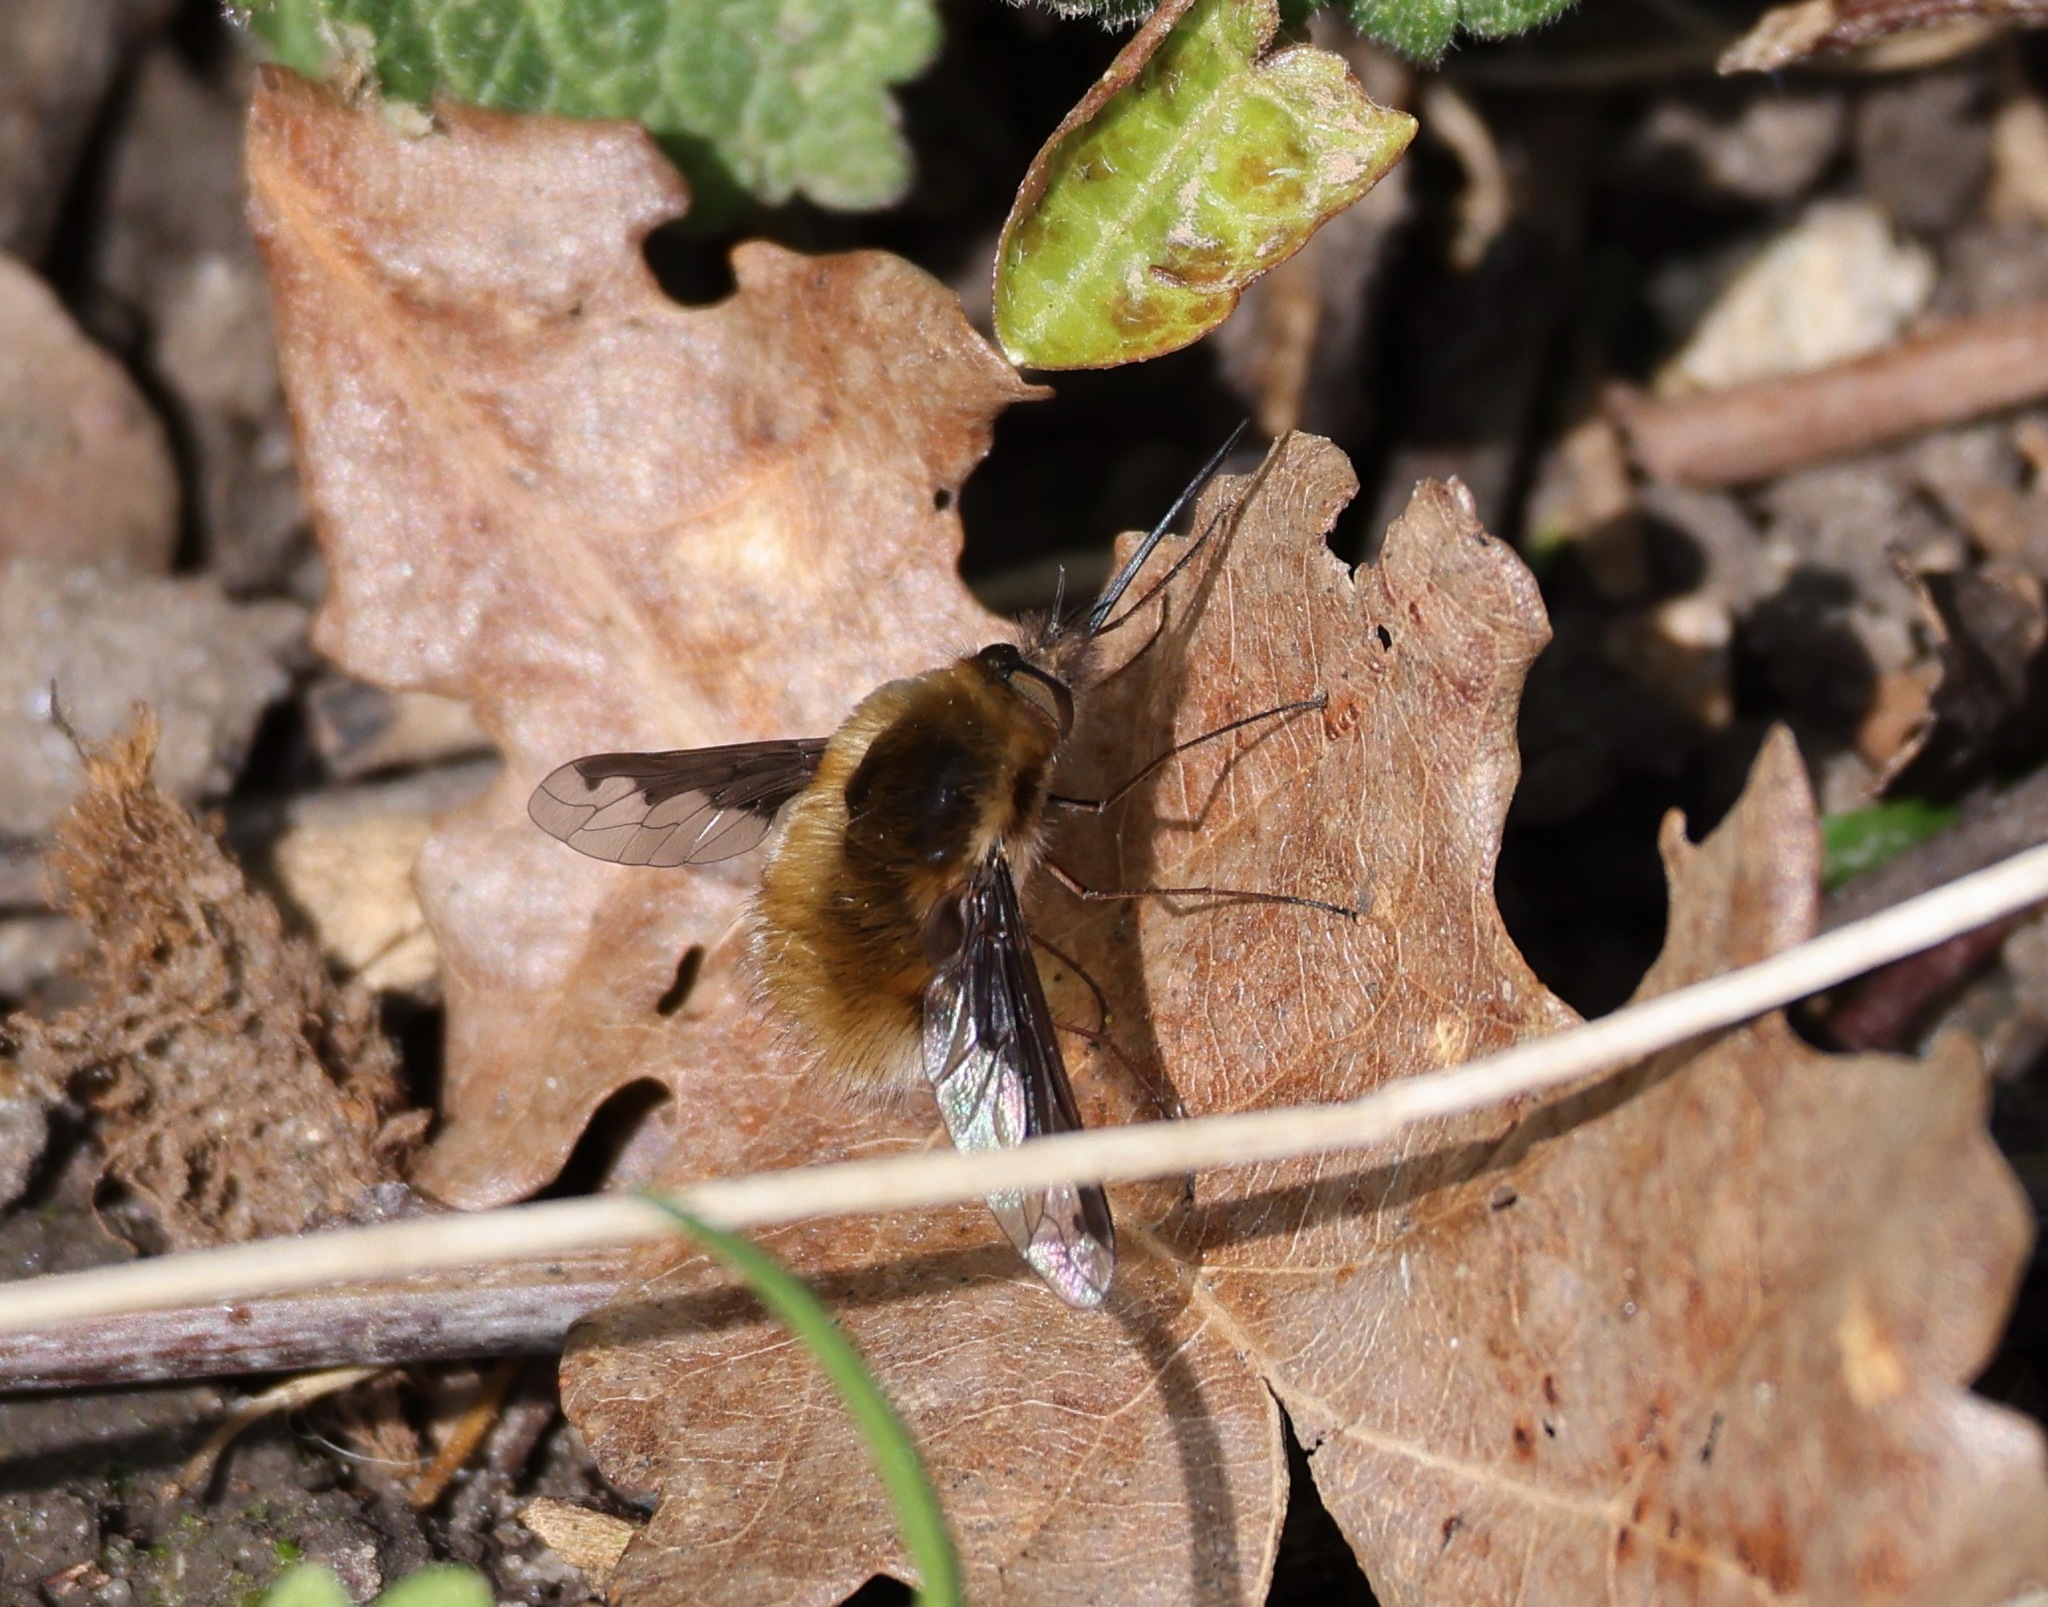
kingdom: Animalia
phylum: Arthropoda
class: Insecta
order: Diptera
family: Bombyliidae
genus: Bombylius
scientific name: Bombylius major
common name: Bee fly
